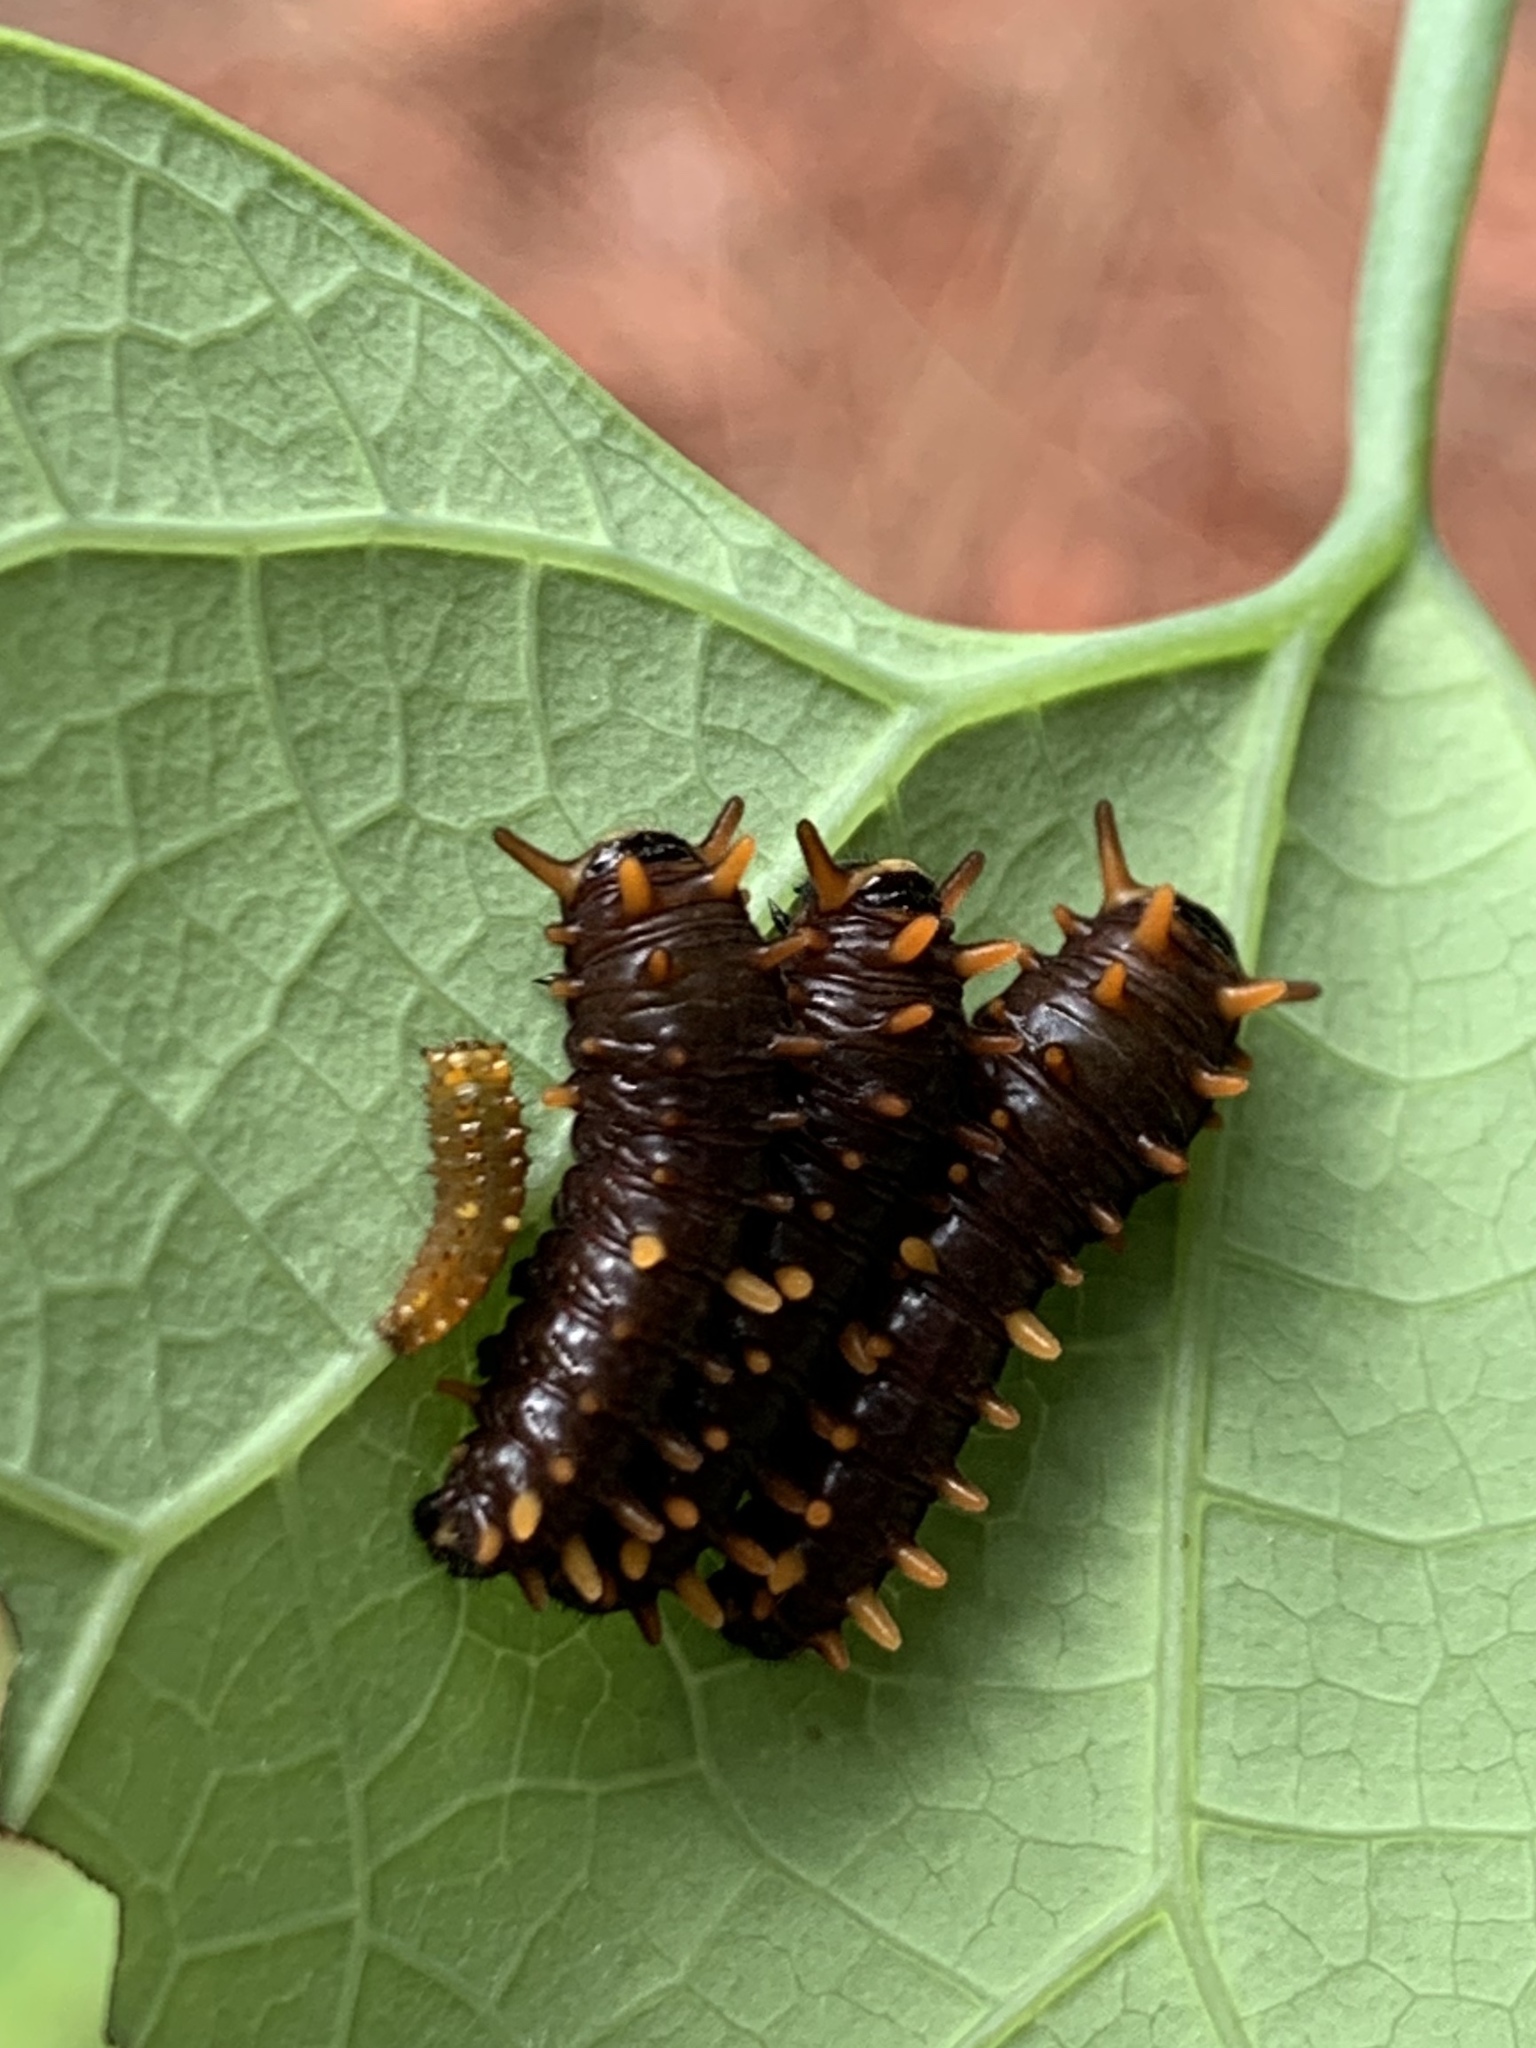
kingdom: Animalia
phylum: Arthropoda
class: Insecta
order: Lepidoptera
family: Papilionidae
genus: Battus
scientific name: Battus polydamas
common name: Polydamas swallowtail
